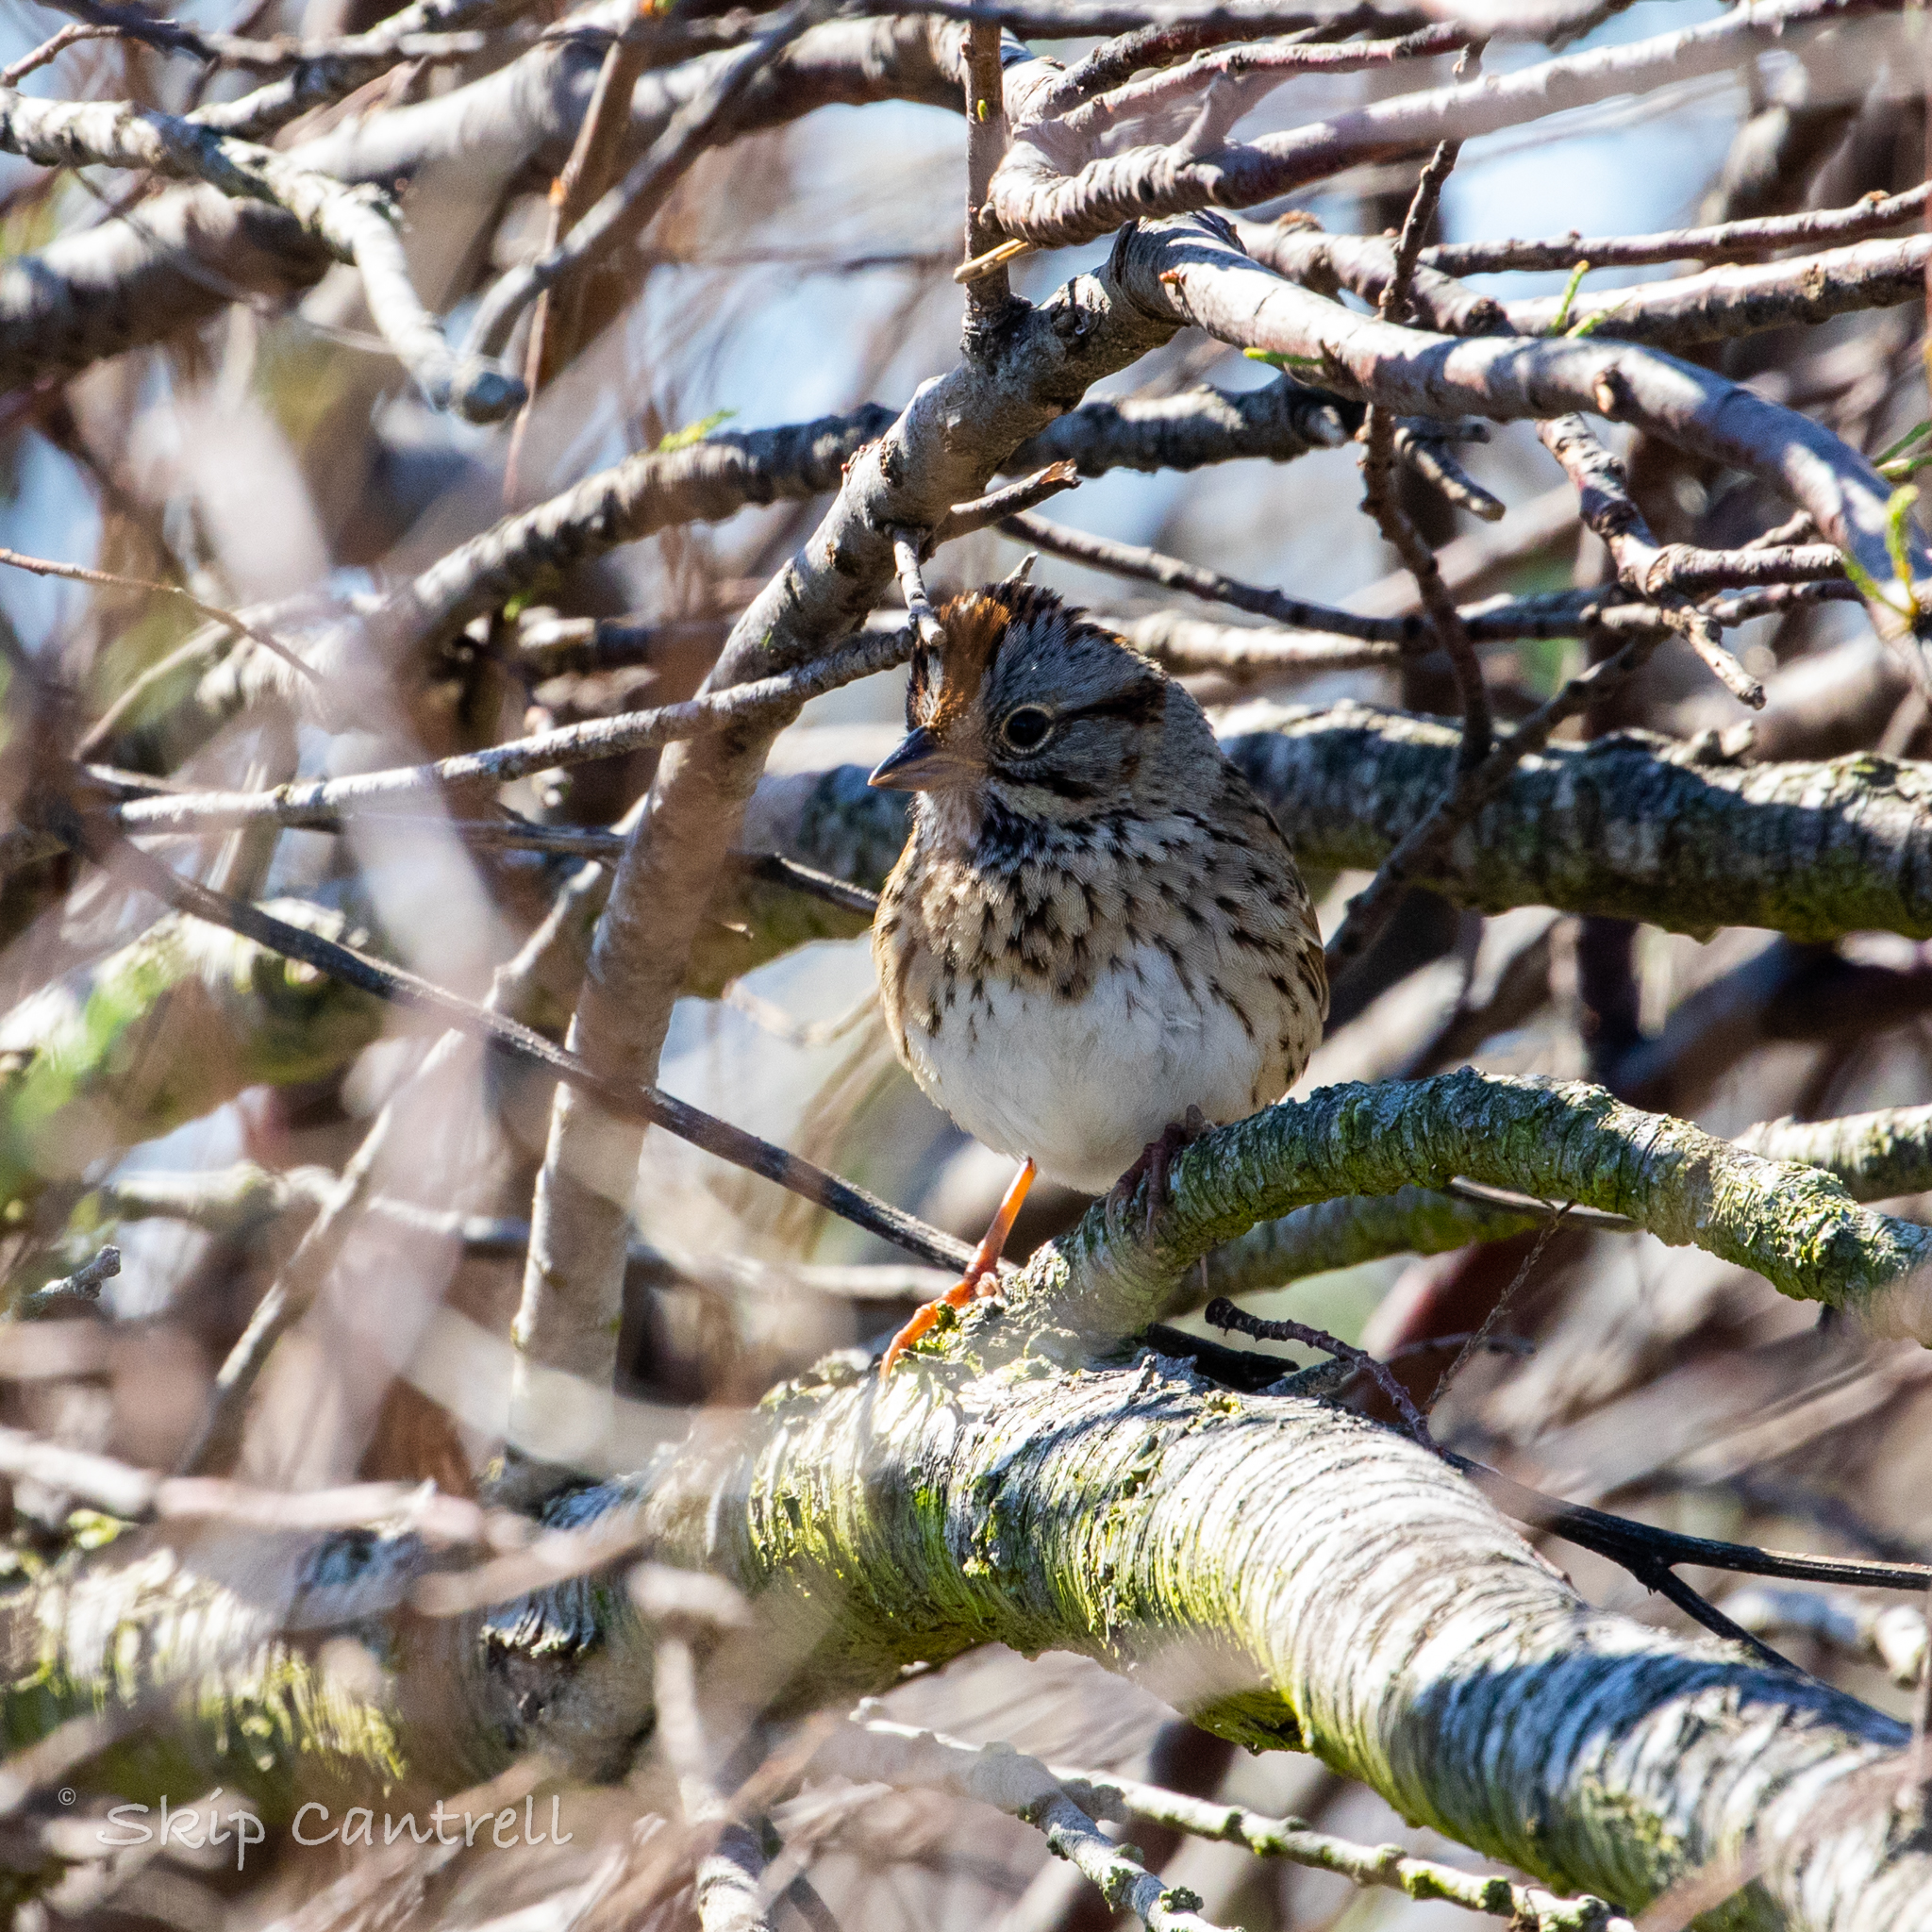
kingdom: Animalia
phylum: Chordata
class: Aves
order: Passeriformes
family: Passerellidae
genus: Melospiza
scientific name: Melospiza lincolnii
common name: Lincoln's sparrow
